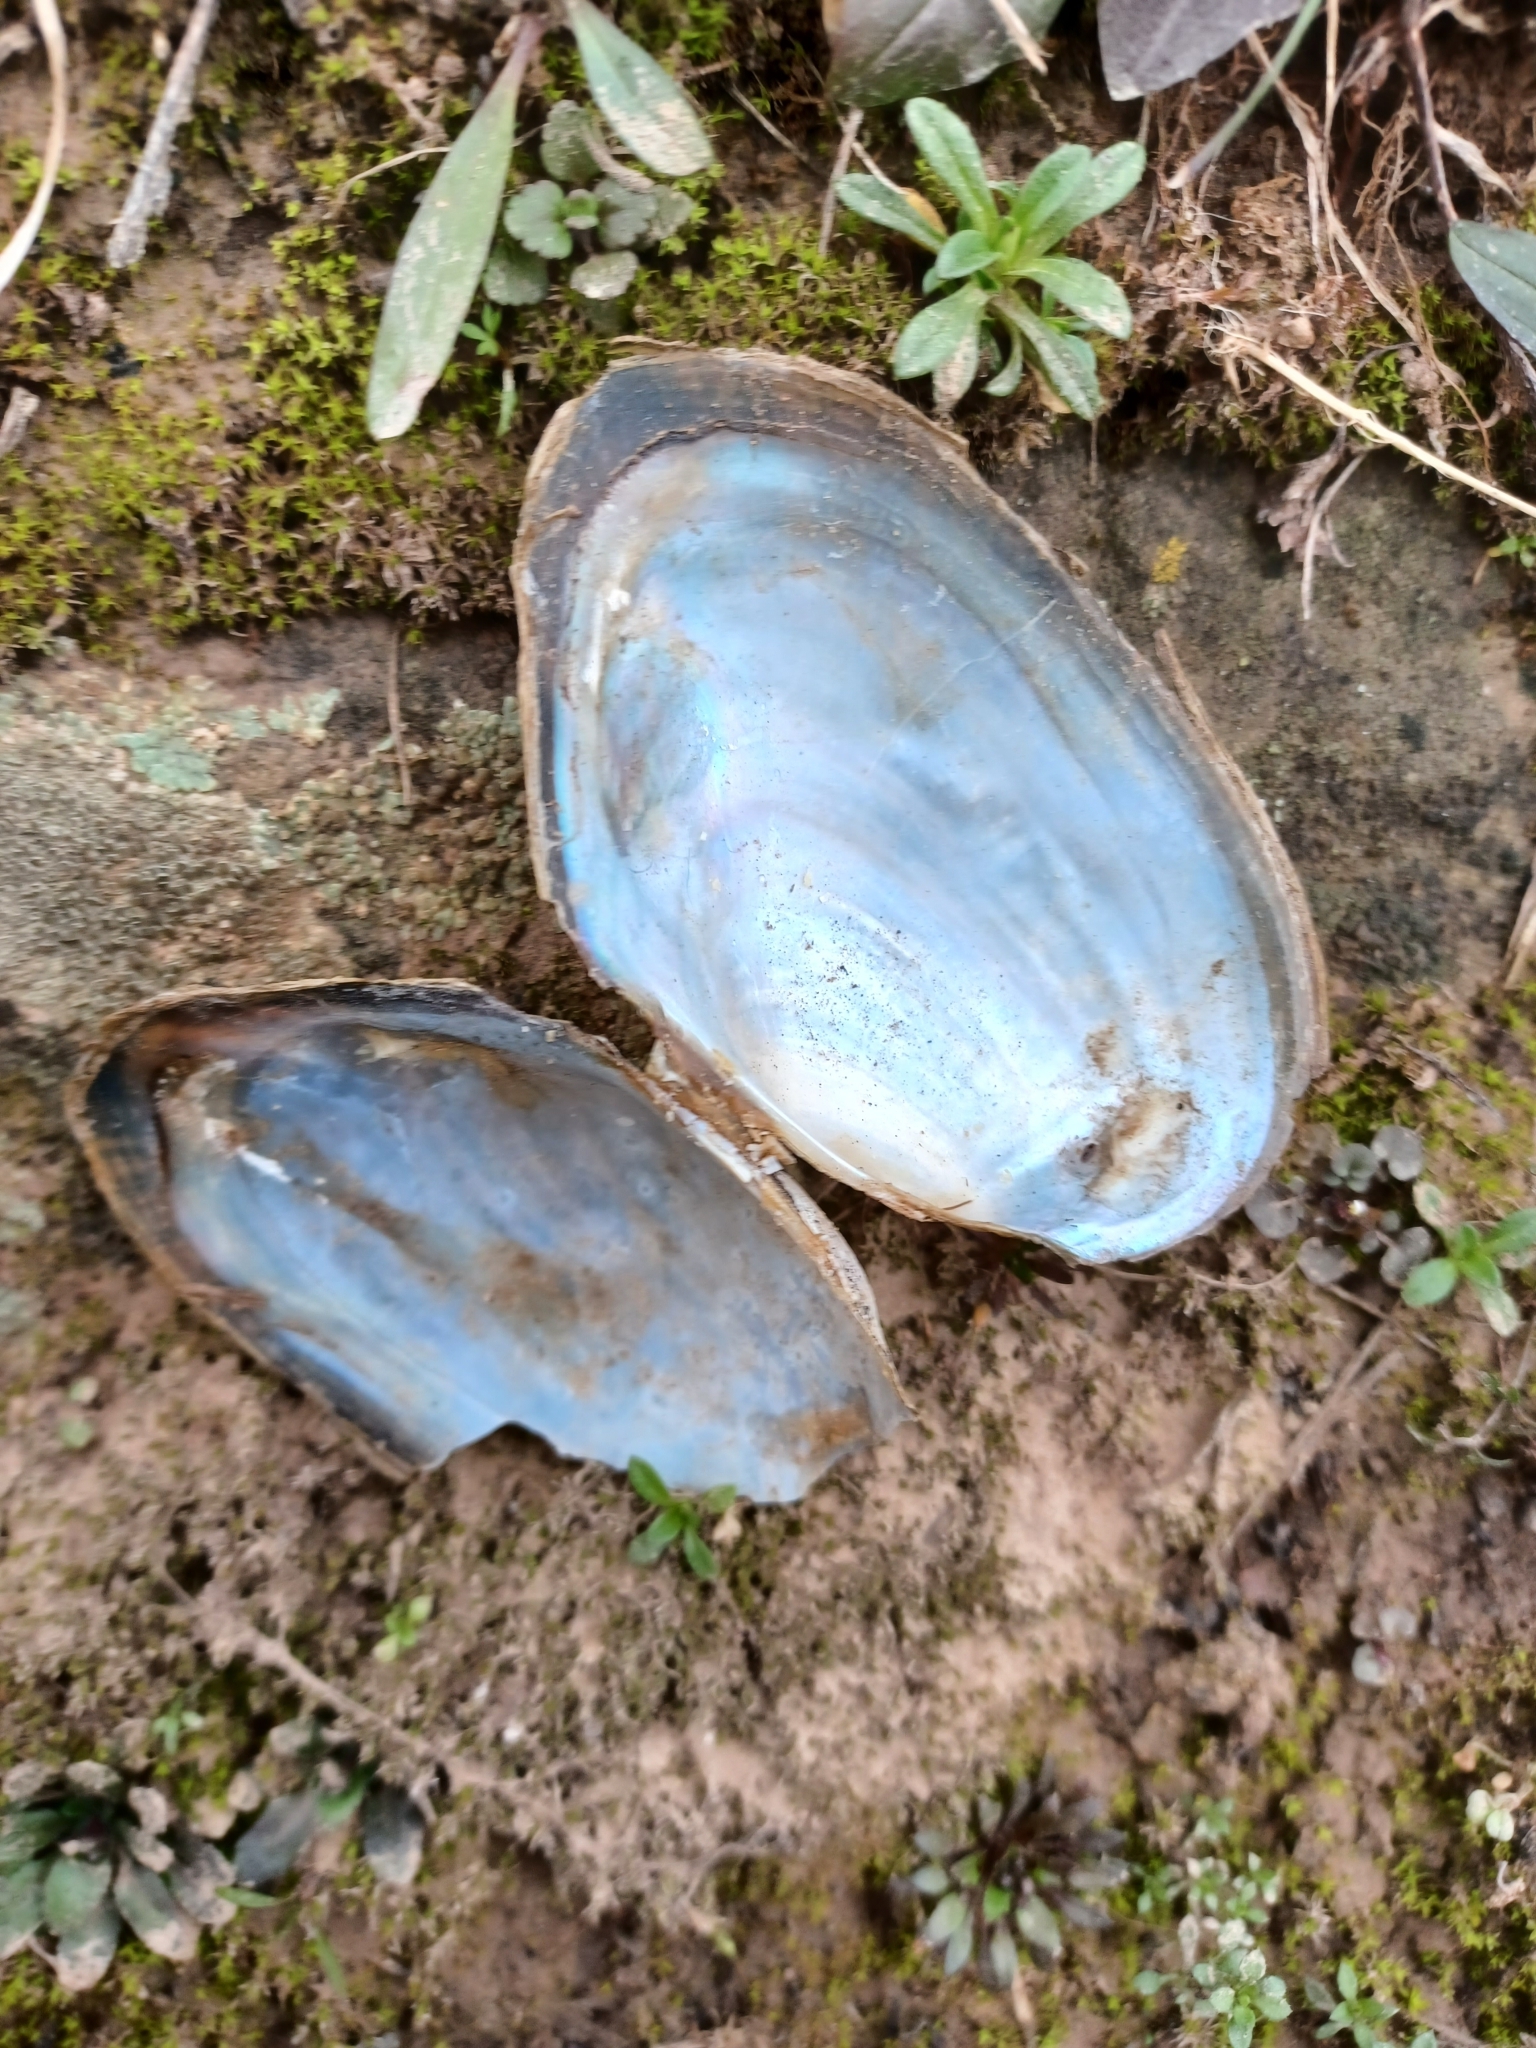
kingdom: Animalia
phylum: Mollusca
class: Bivalvia
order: Unionida
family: Unionidae
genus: Anodonta
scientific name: Anodonta anatina
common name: Duck mussel
